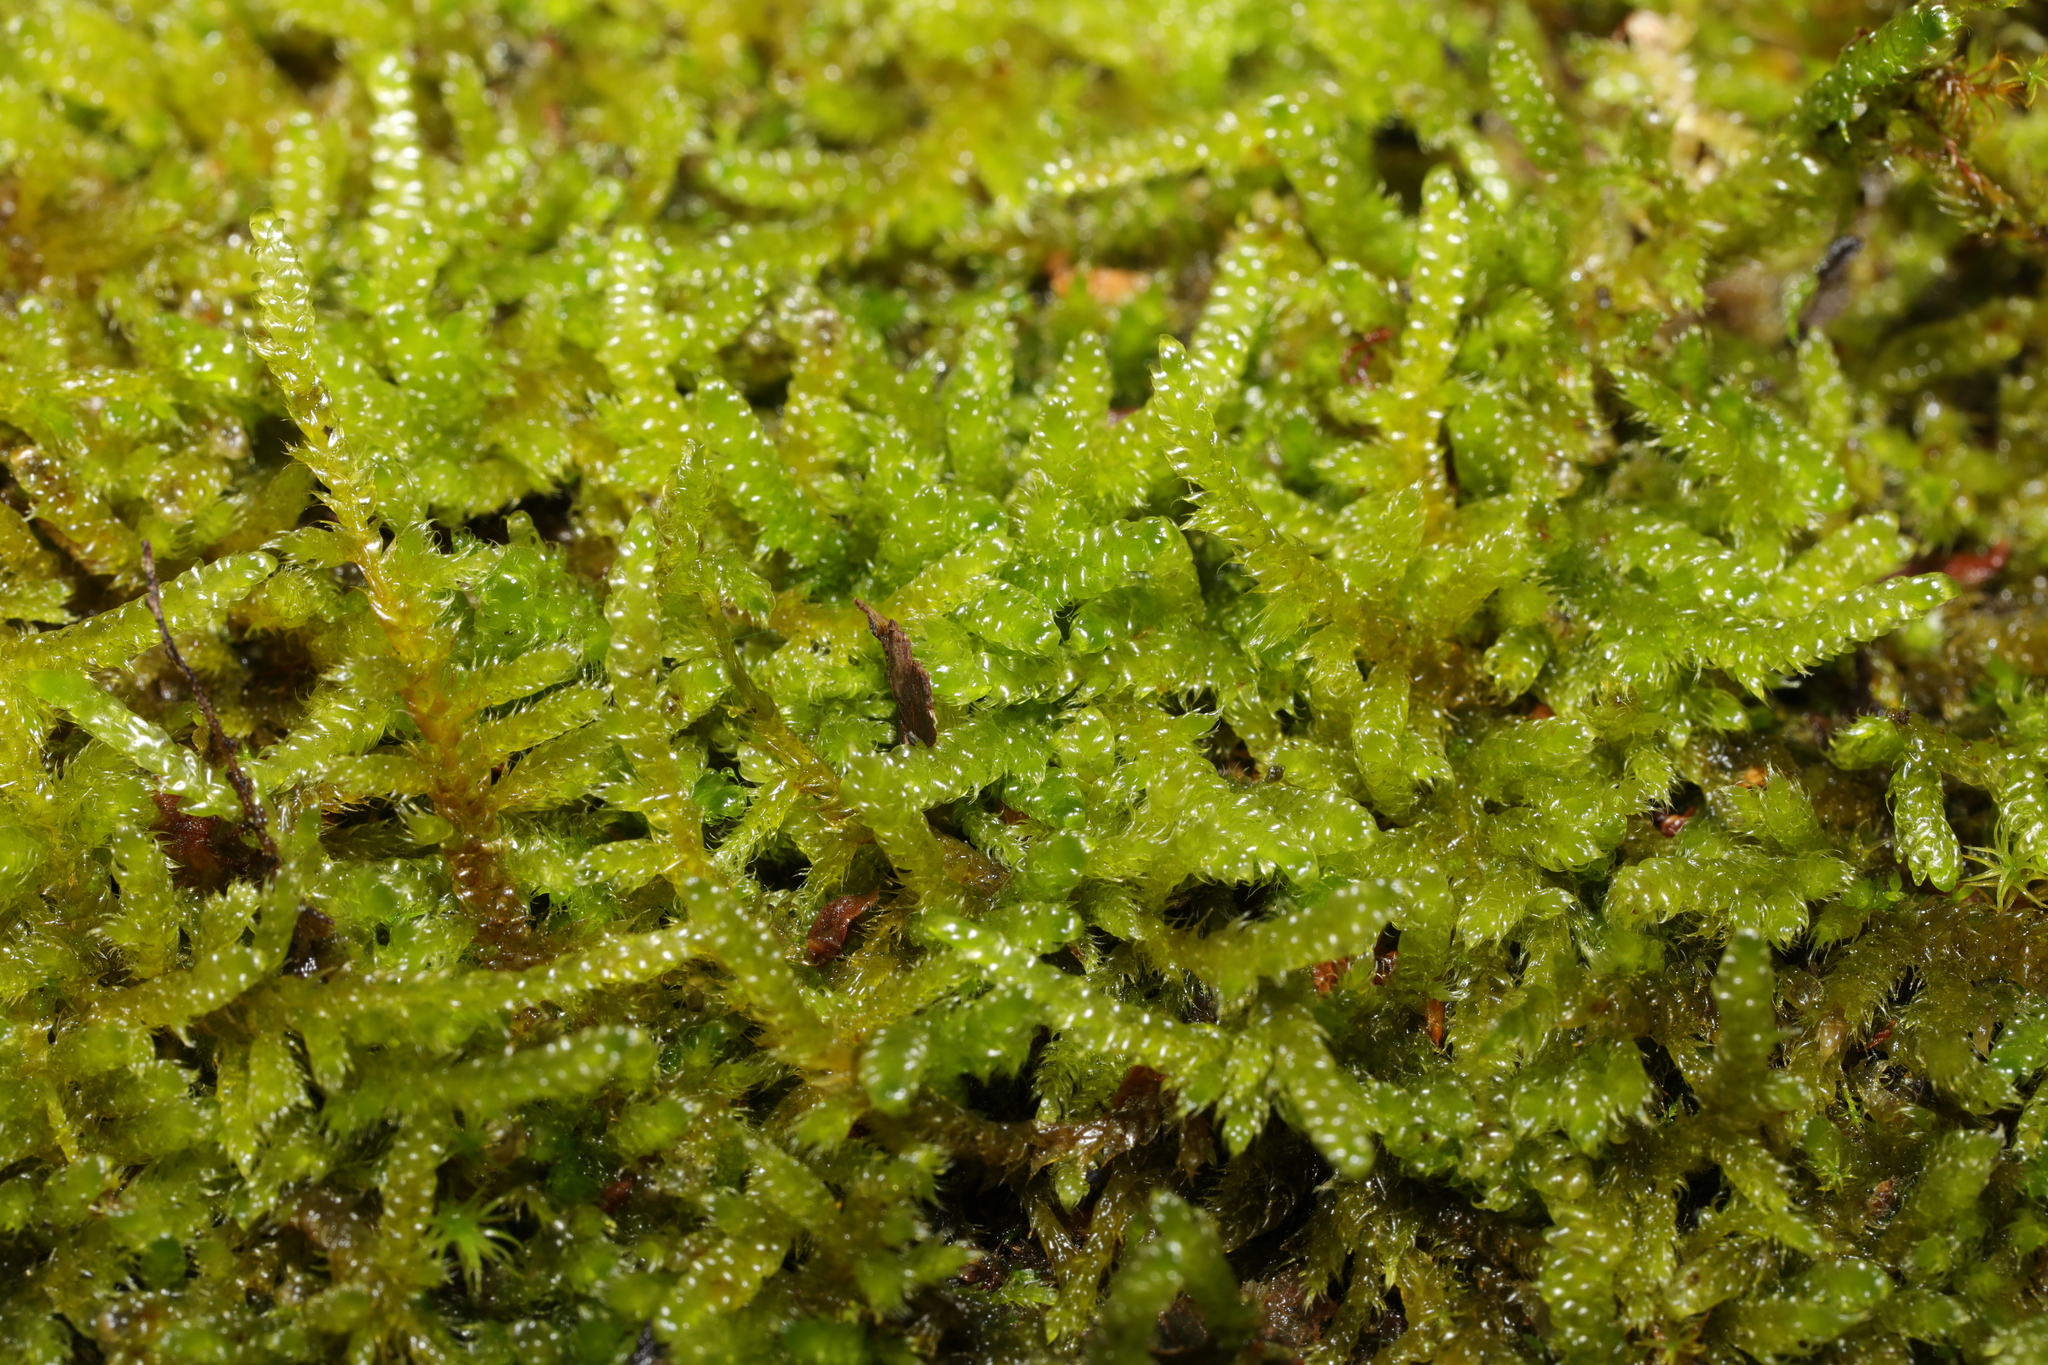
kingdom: Plantae
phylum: Bryophyta
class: Bryopsida
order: Hypnales
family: Hypnaceae
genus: Hypnum
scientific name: Hypnum cupressiforme
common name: Cypress-leaved plait-moss
